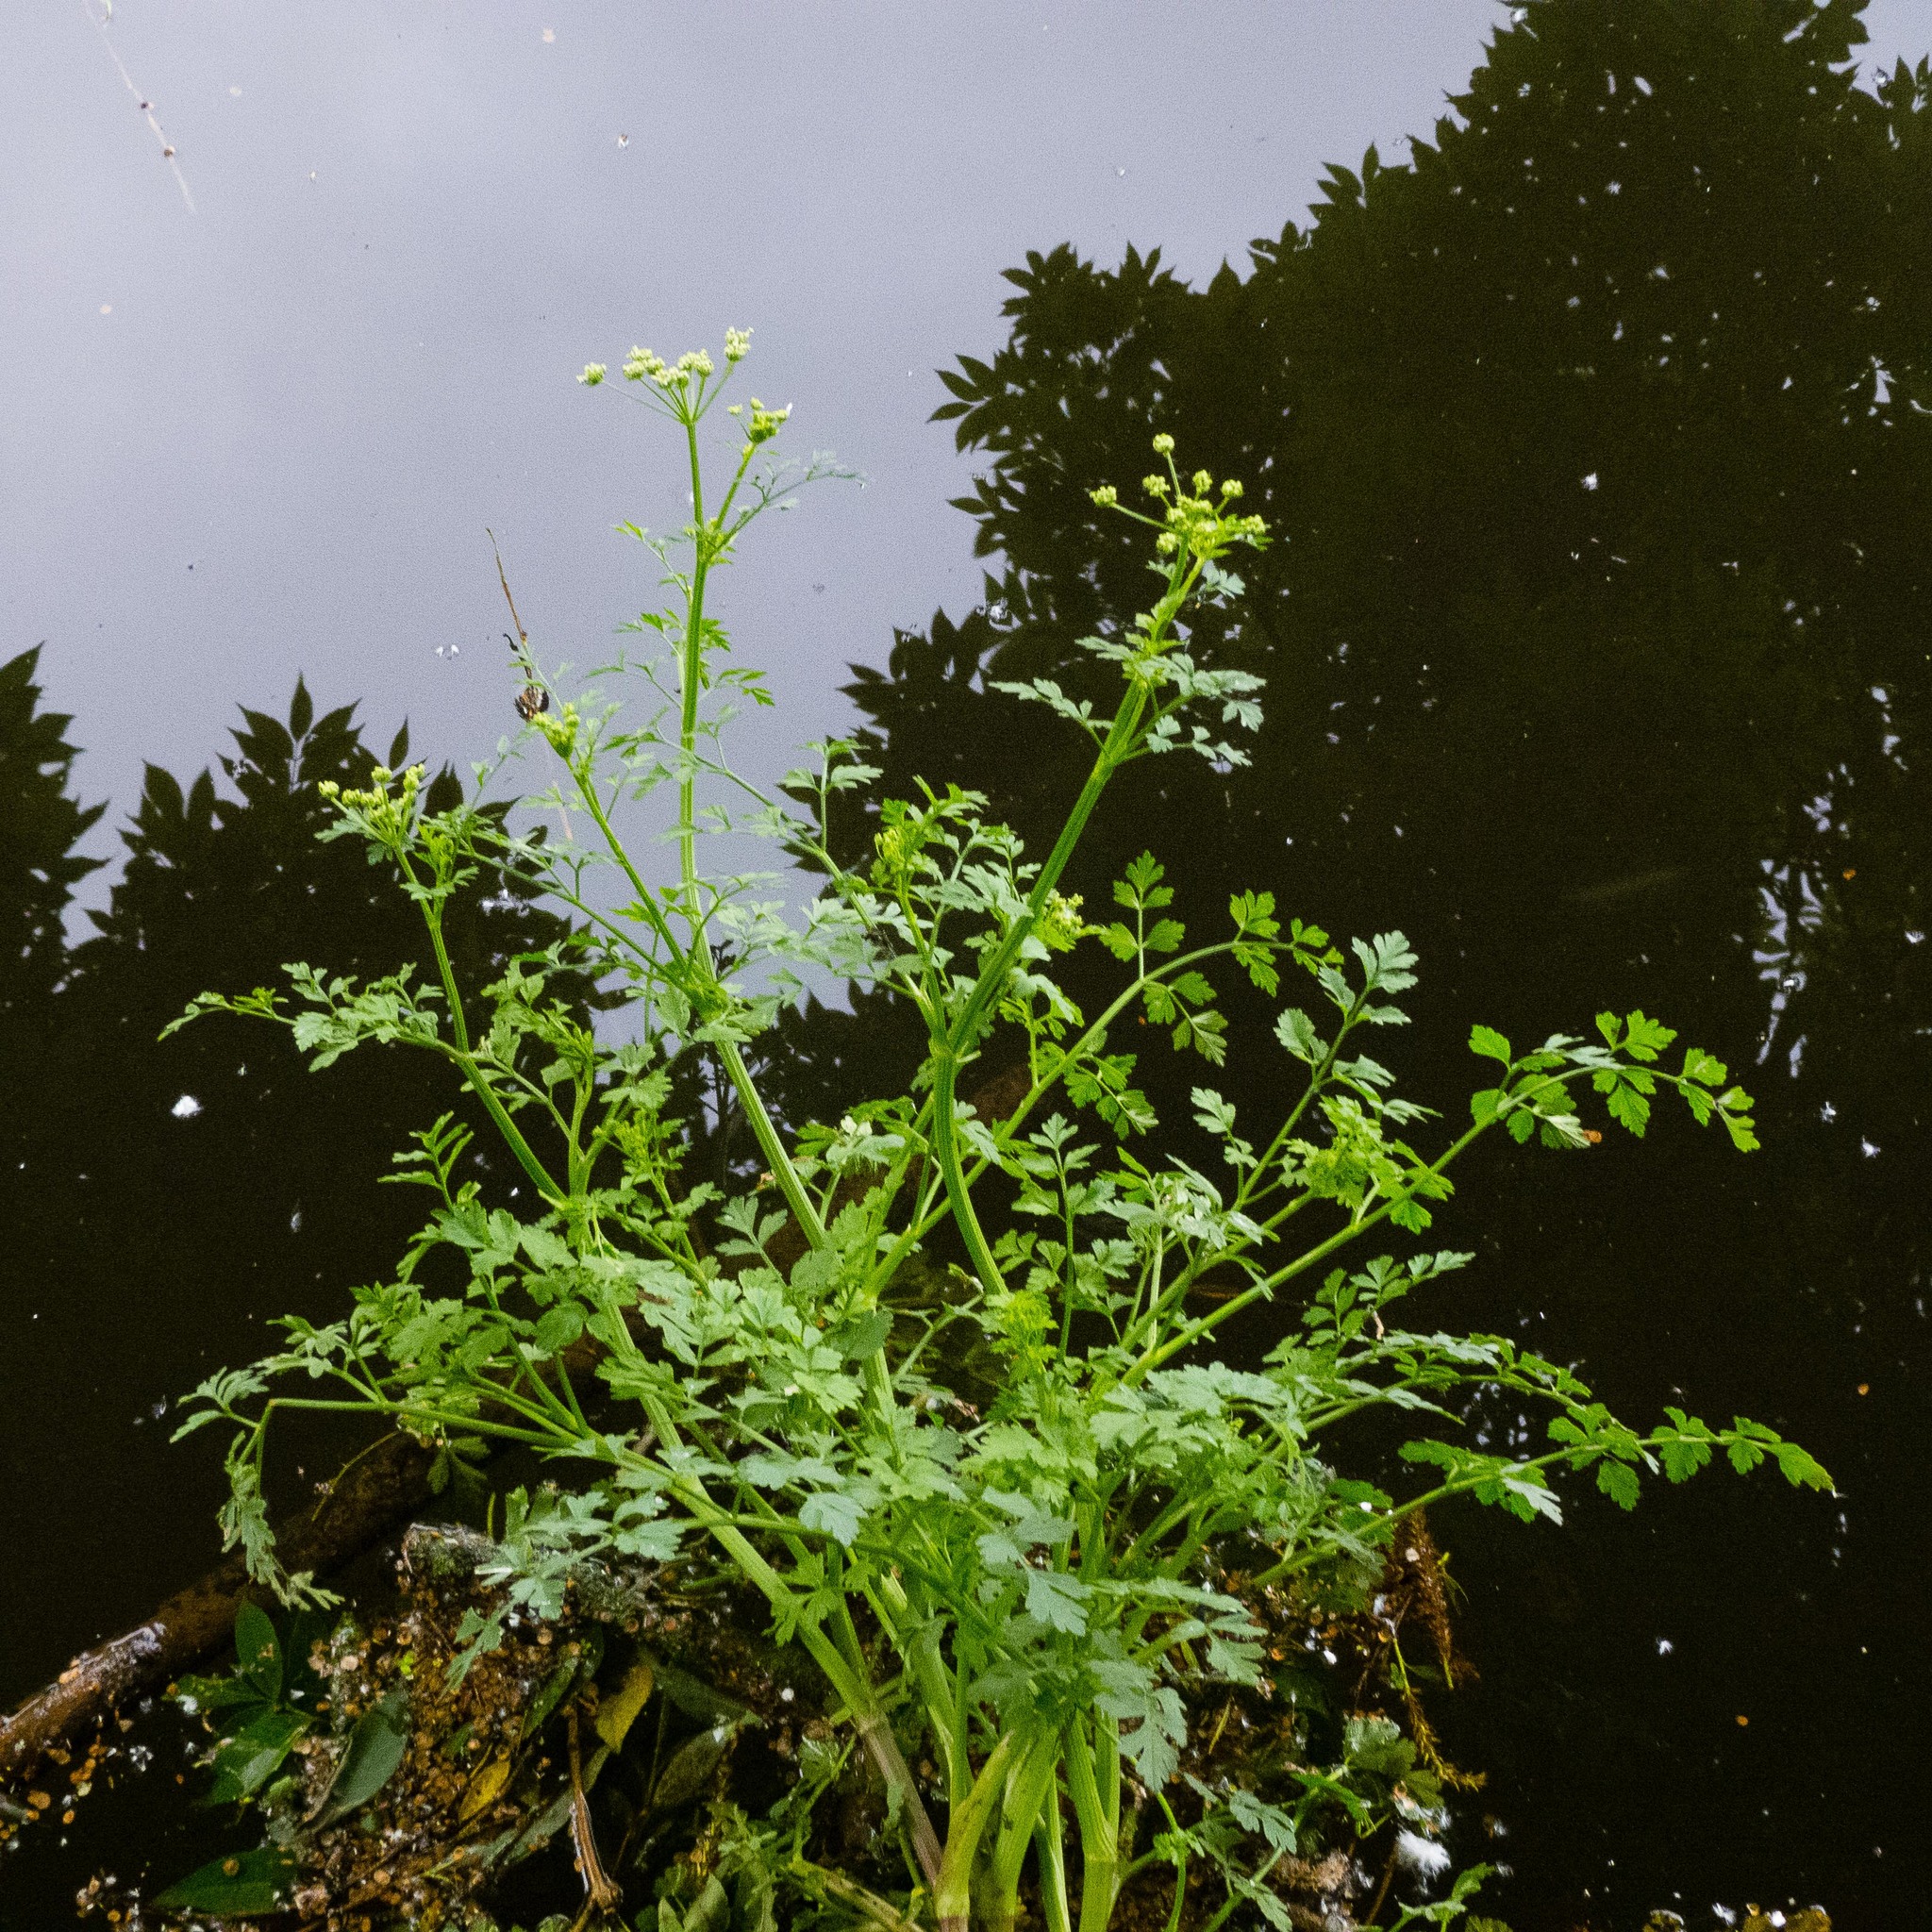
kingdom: Plantae
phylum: Tracheophyta
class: Magnoliopsida
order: Apiales
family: Apiaceae
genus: Oenanthe
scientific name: Oenanthe crocata
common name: Hemlock water-dropwort
